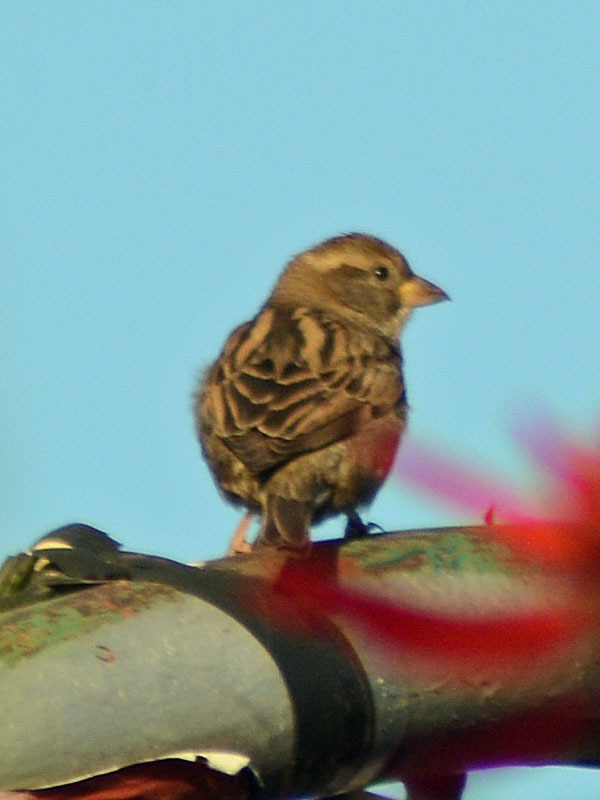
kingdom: Animalia
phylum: Chordata
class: Aves
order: Passeriformes
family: Passeridae
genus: Passer
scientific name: Passer domesticus
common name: House sparrow
